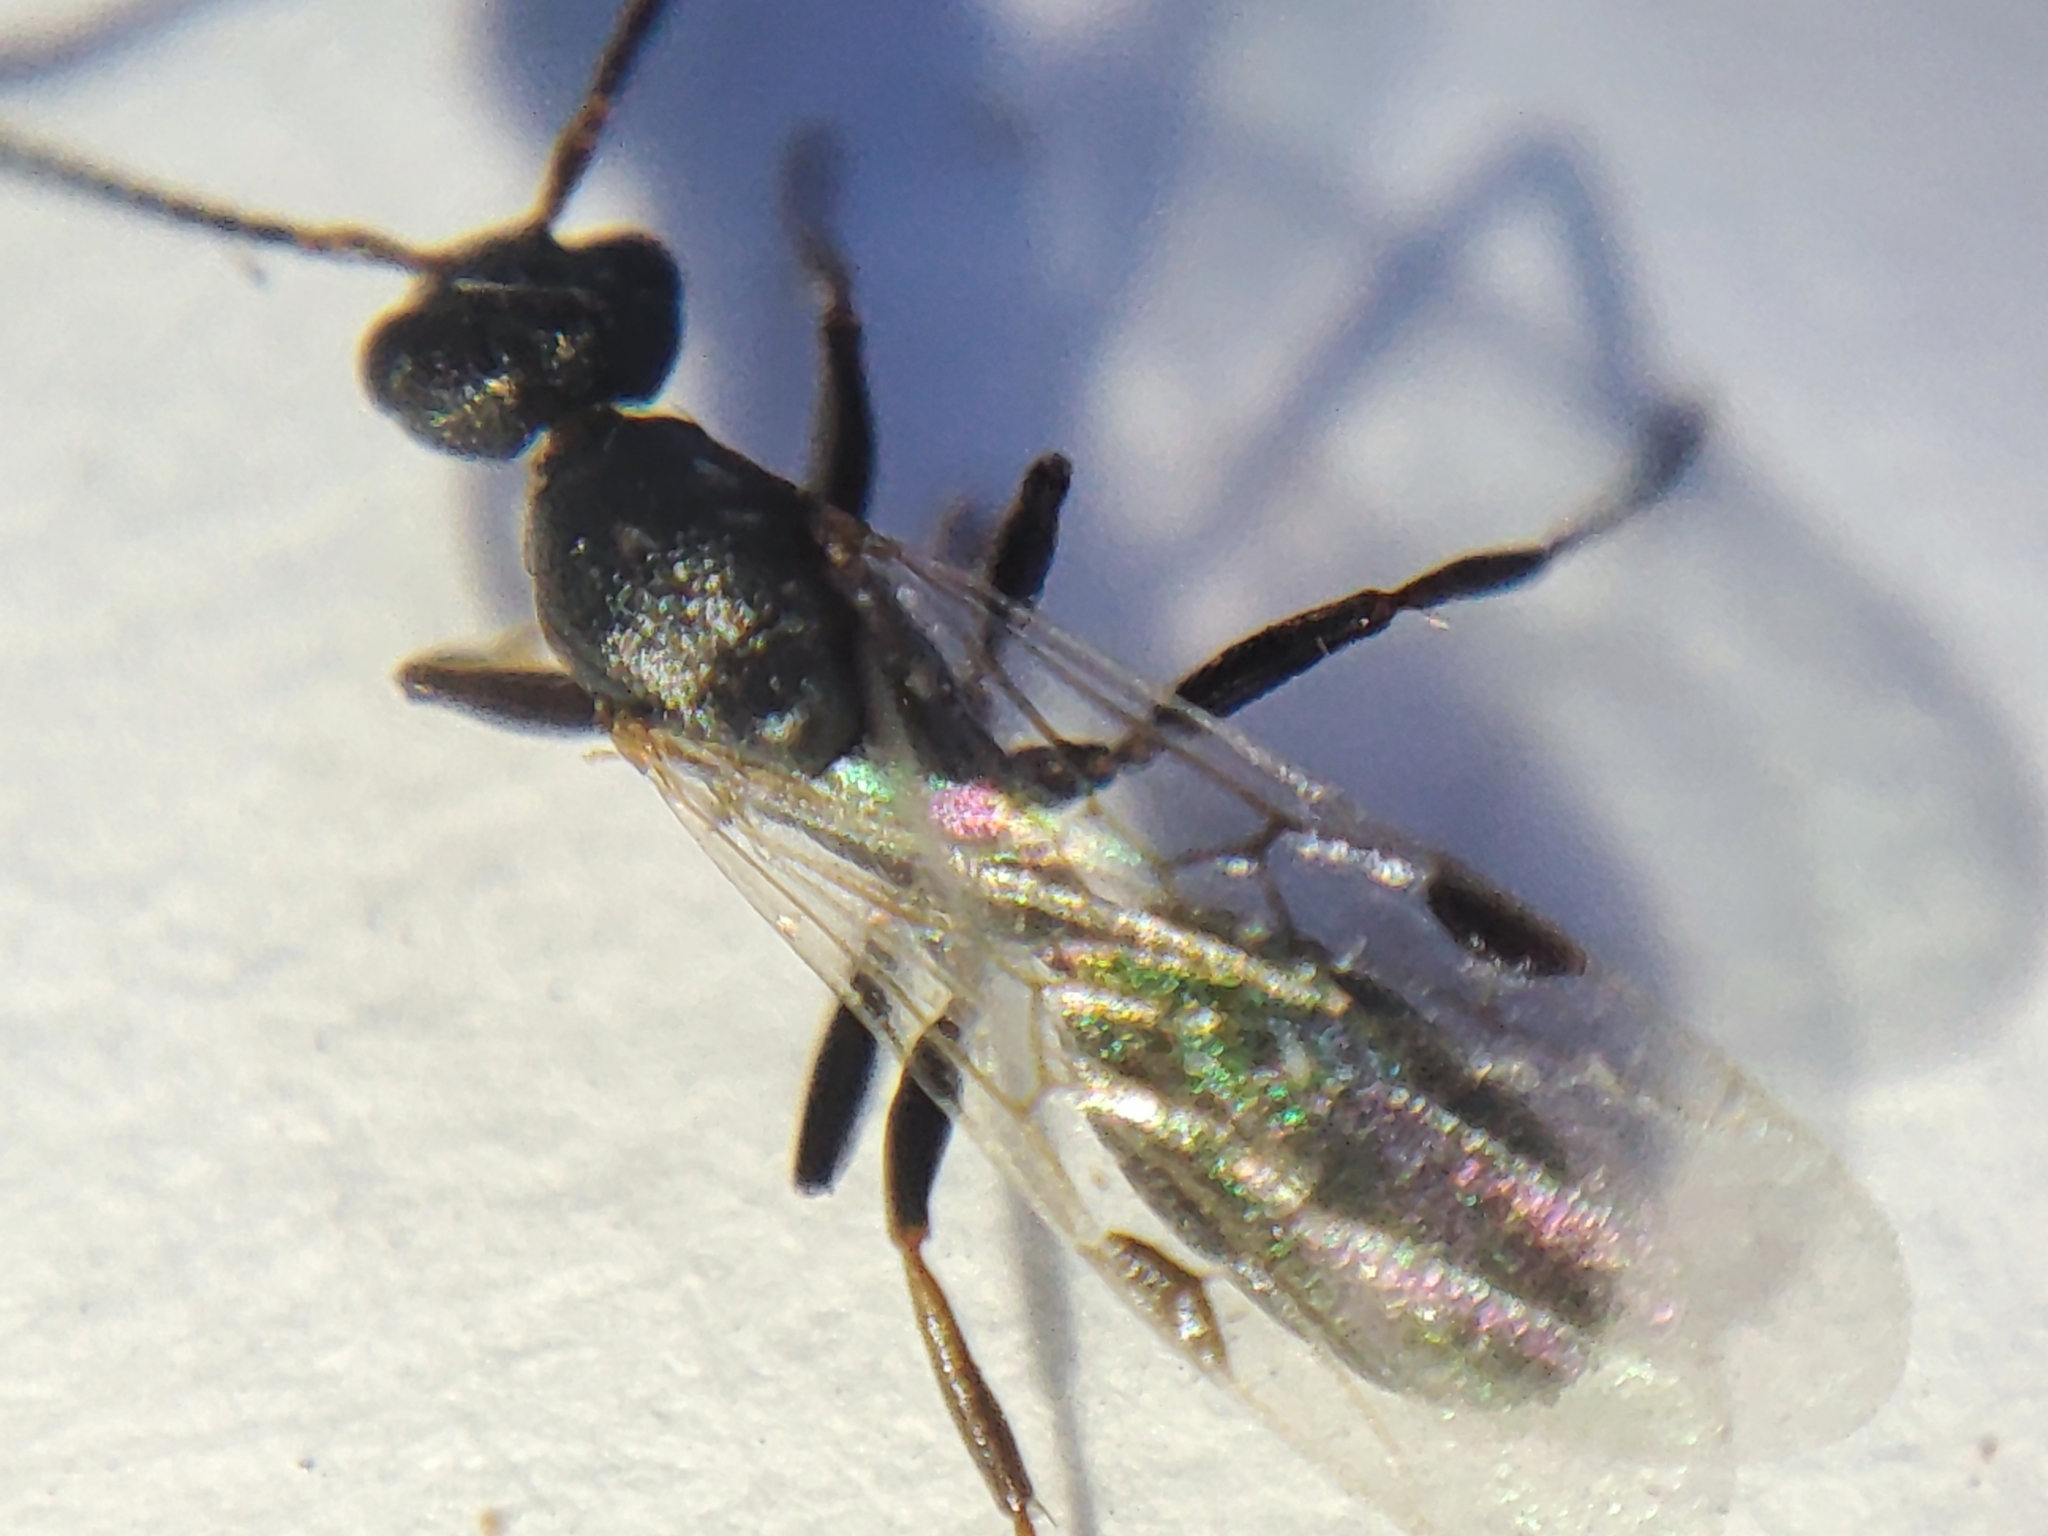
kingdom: Animalia
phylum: Arthropoda
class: Insecta
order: Hymenoptera
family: Formicidae
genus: Dolichoderus
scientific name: Dolichoderus quadripunctatus
